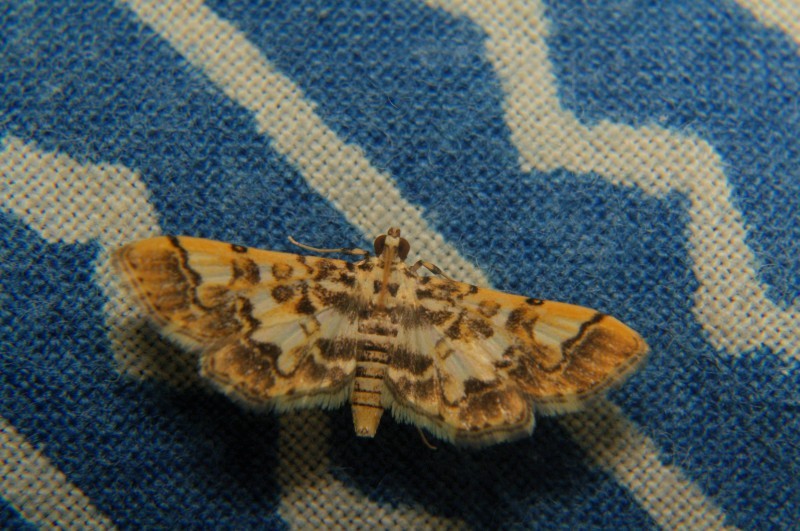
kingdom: Animalia
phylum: Arthropoda
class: Insecta
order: Lepidoptera
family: Crambidae
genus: Lamprosema
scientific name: Lamprosema commixta
